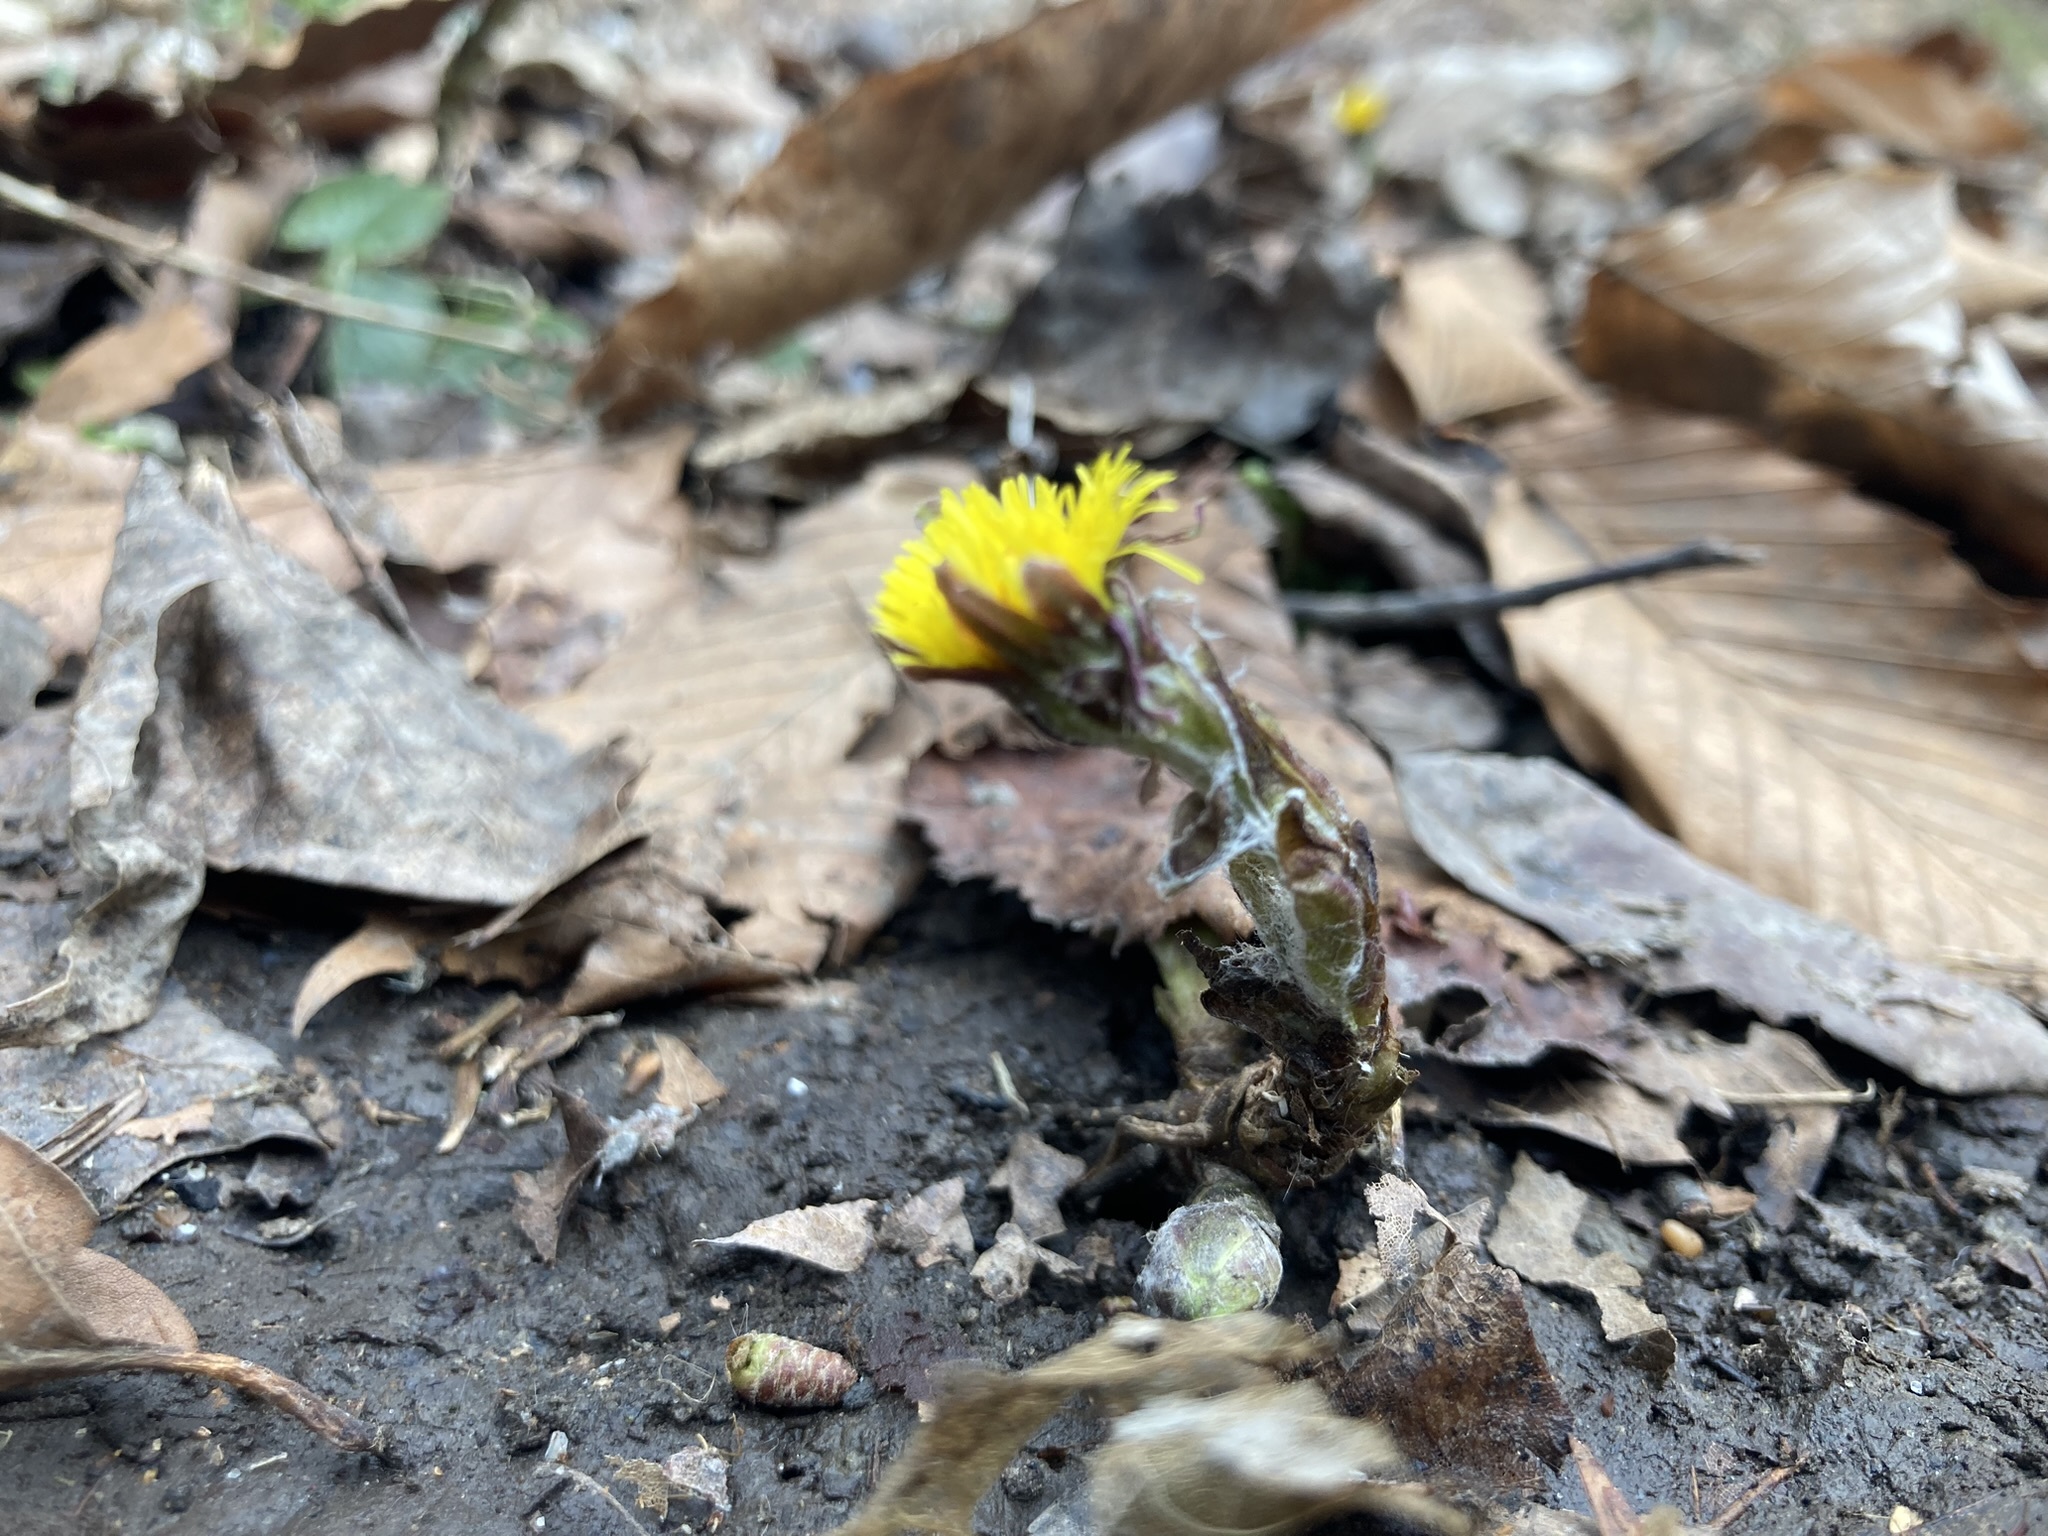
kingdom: Plantae
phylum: Tracheophyta
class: Magnoliopsida
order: Asterales
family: Asteraceae
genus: Tussilago
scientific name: Tussilago farfara
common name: Coltsfoot
